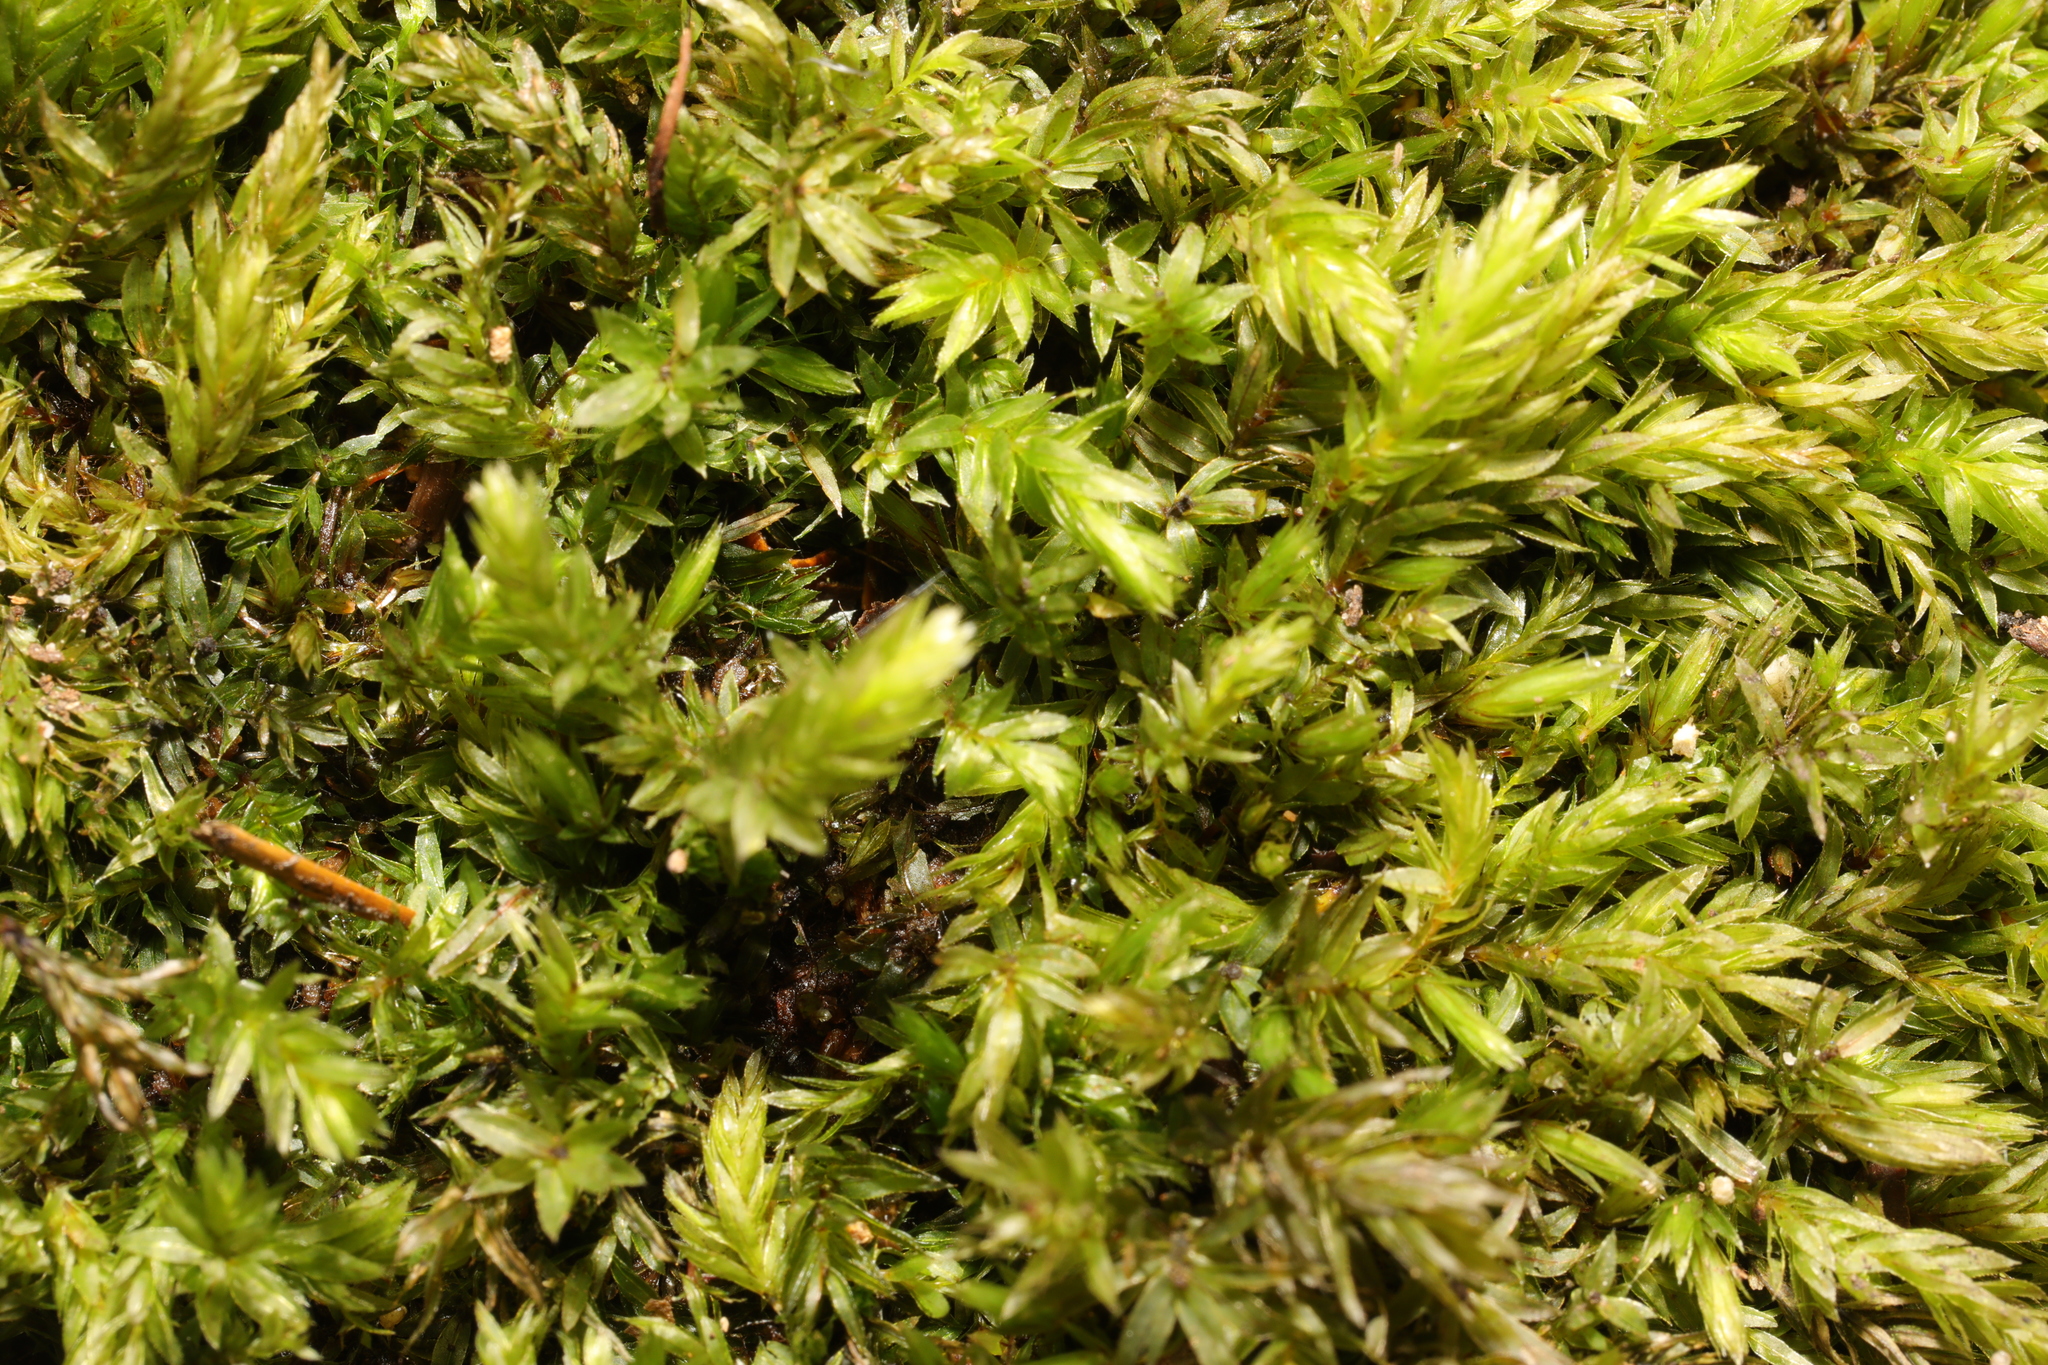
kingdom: Plantae
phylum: Bryophyta
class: Bryopsida
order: Bryales
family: Mniaceae
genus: Mnium
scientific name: Mnium hornum
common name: Swan's-neck leafy moss
